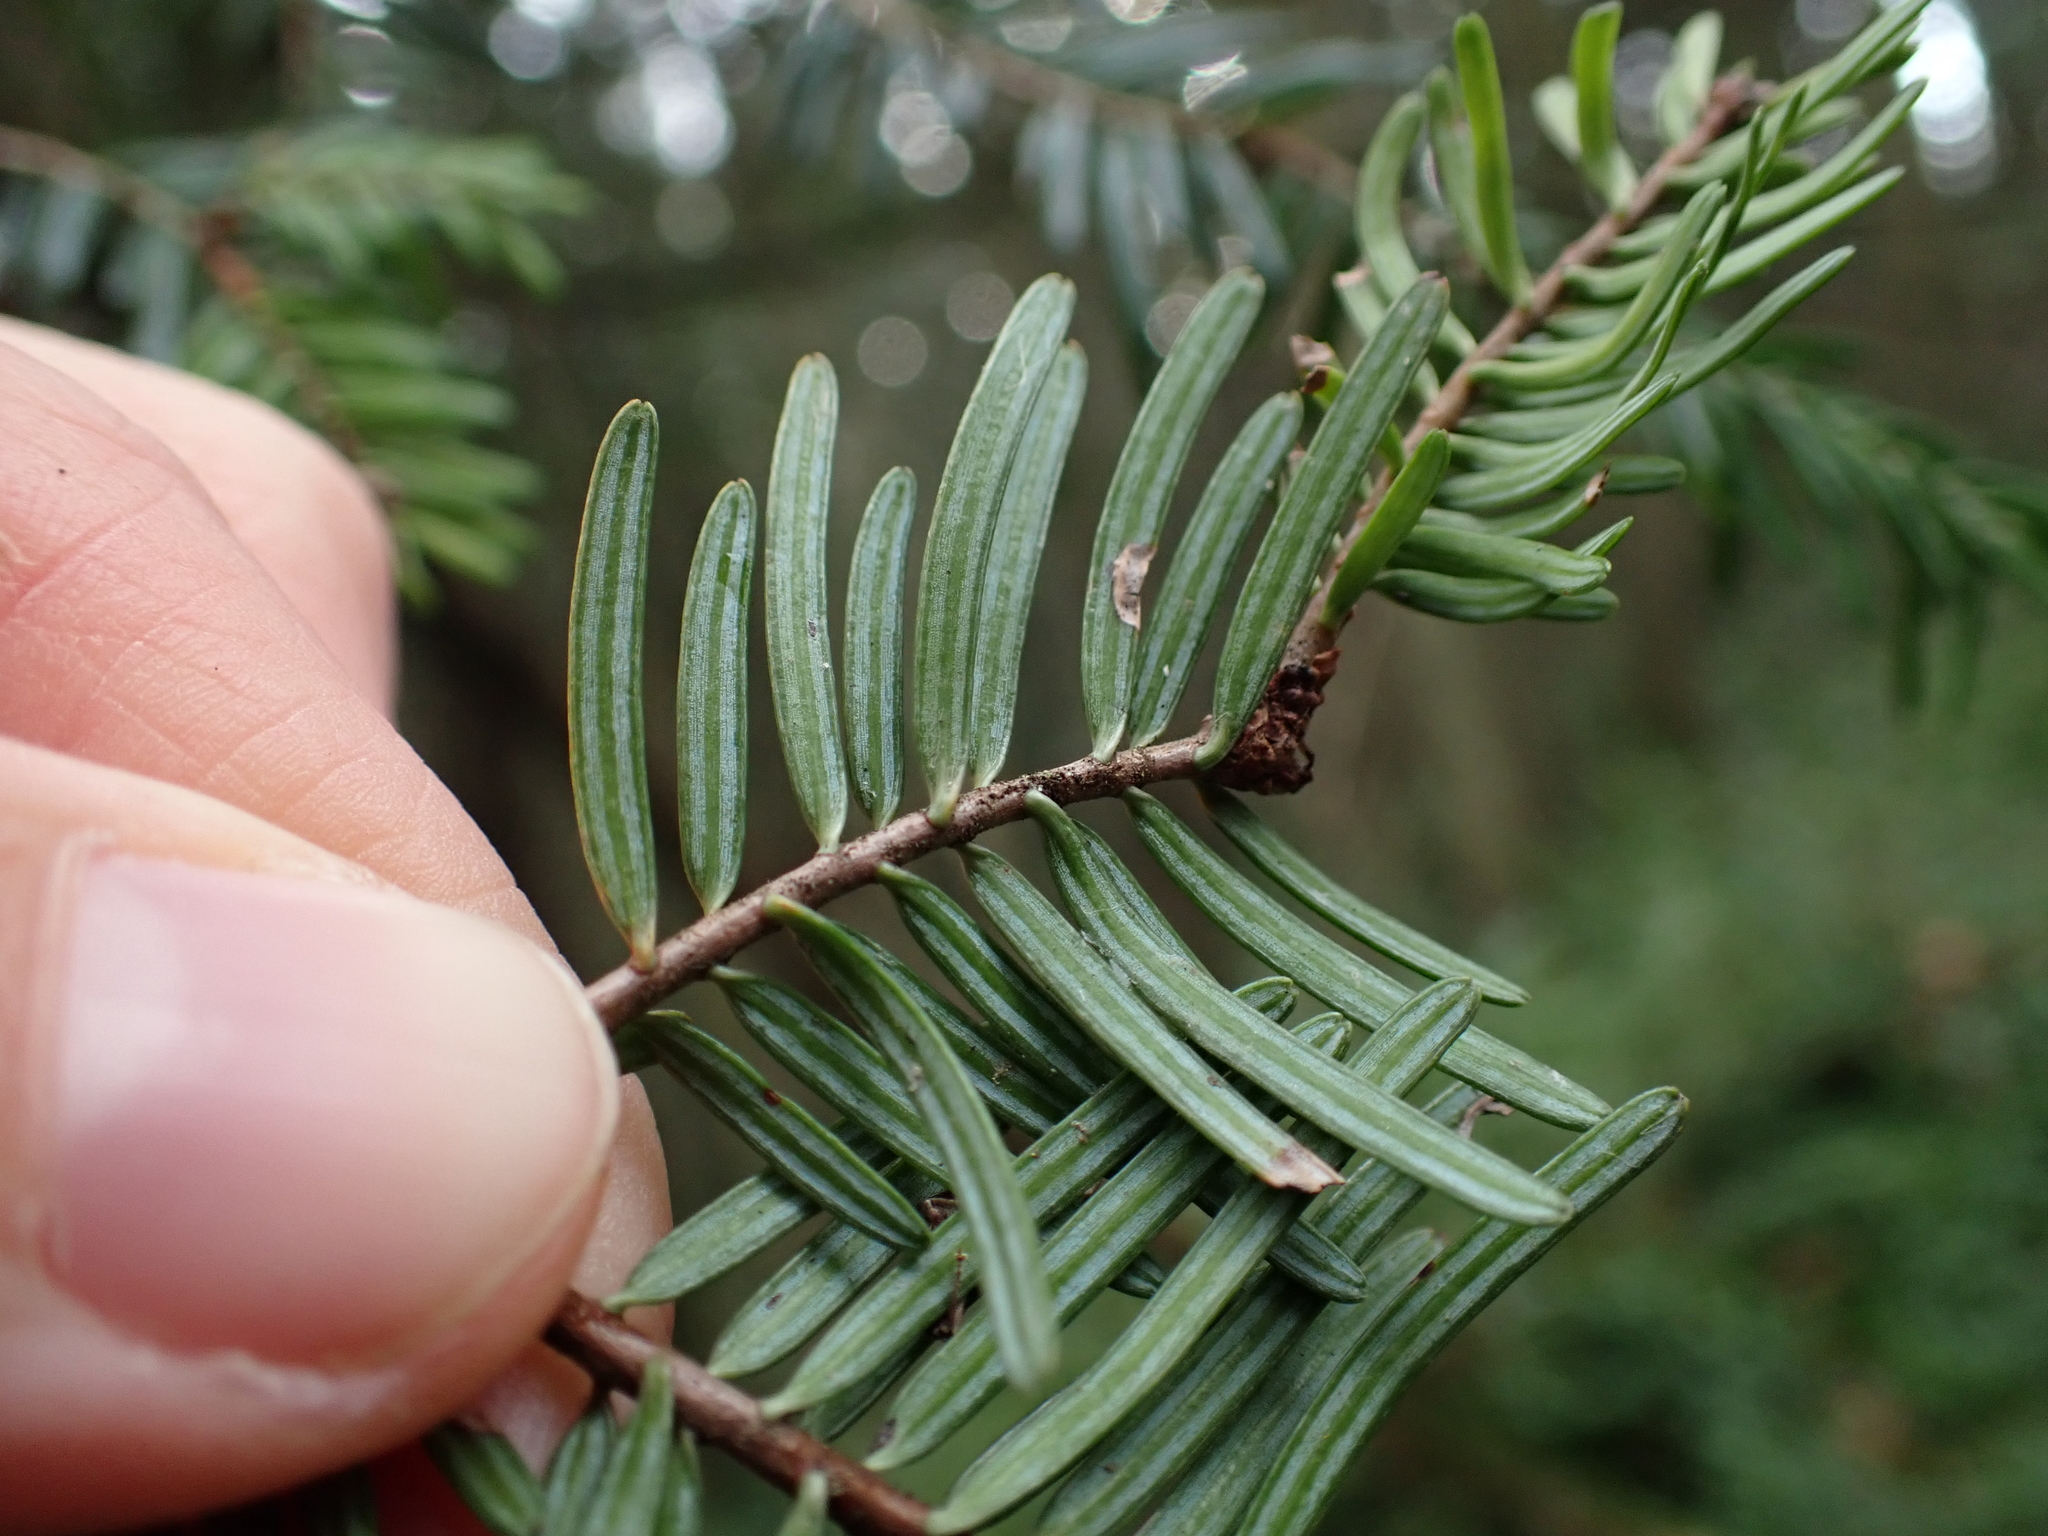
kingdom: Plantae
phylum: Tracheophyta
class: Pinopsida
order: Pinales
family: Pinaceae
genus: Abies
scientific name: Abies grandis
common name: Giant fir
